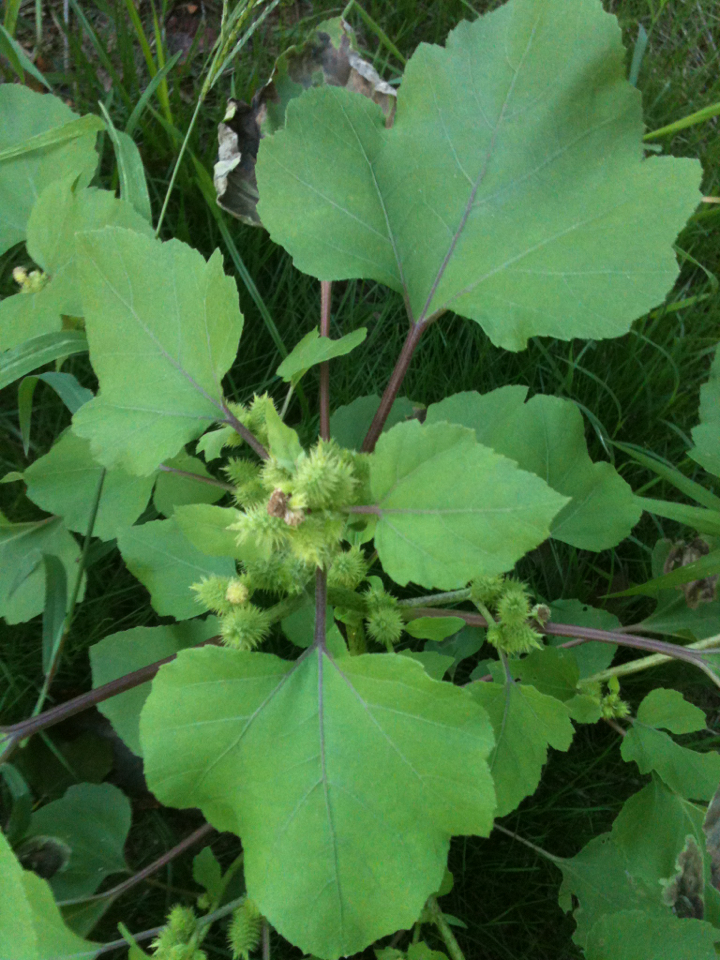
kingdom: Plantae
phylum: Tracheophyta
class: Magnoliopsida
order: Asterales
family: Asteraceae
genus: Xanthium
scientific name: Xanthium strumarium
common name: Rough cocklebur
